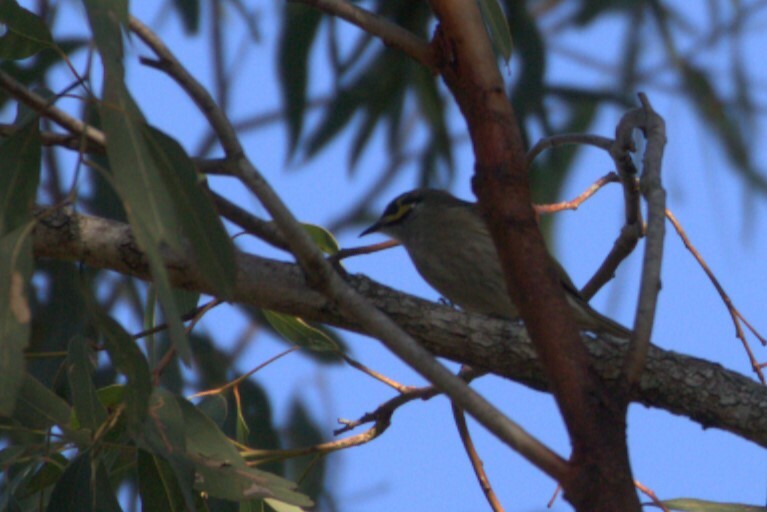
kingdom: Animalia
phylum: Chordata
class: Aves
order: Passeriformes
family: Meliphagidae
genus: Caligavis
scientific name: Caligavis chrysops
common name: Yellow-faced honeyeater
